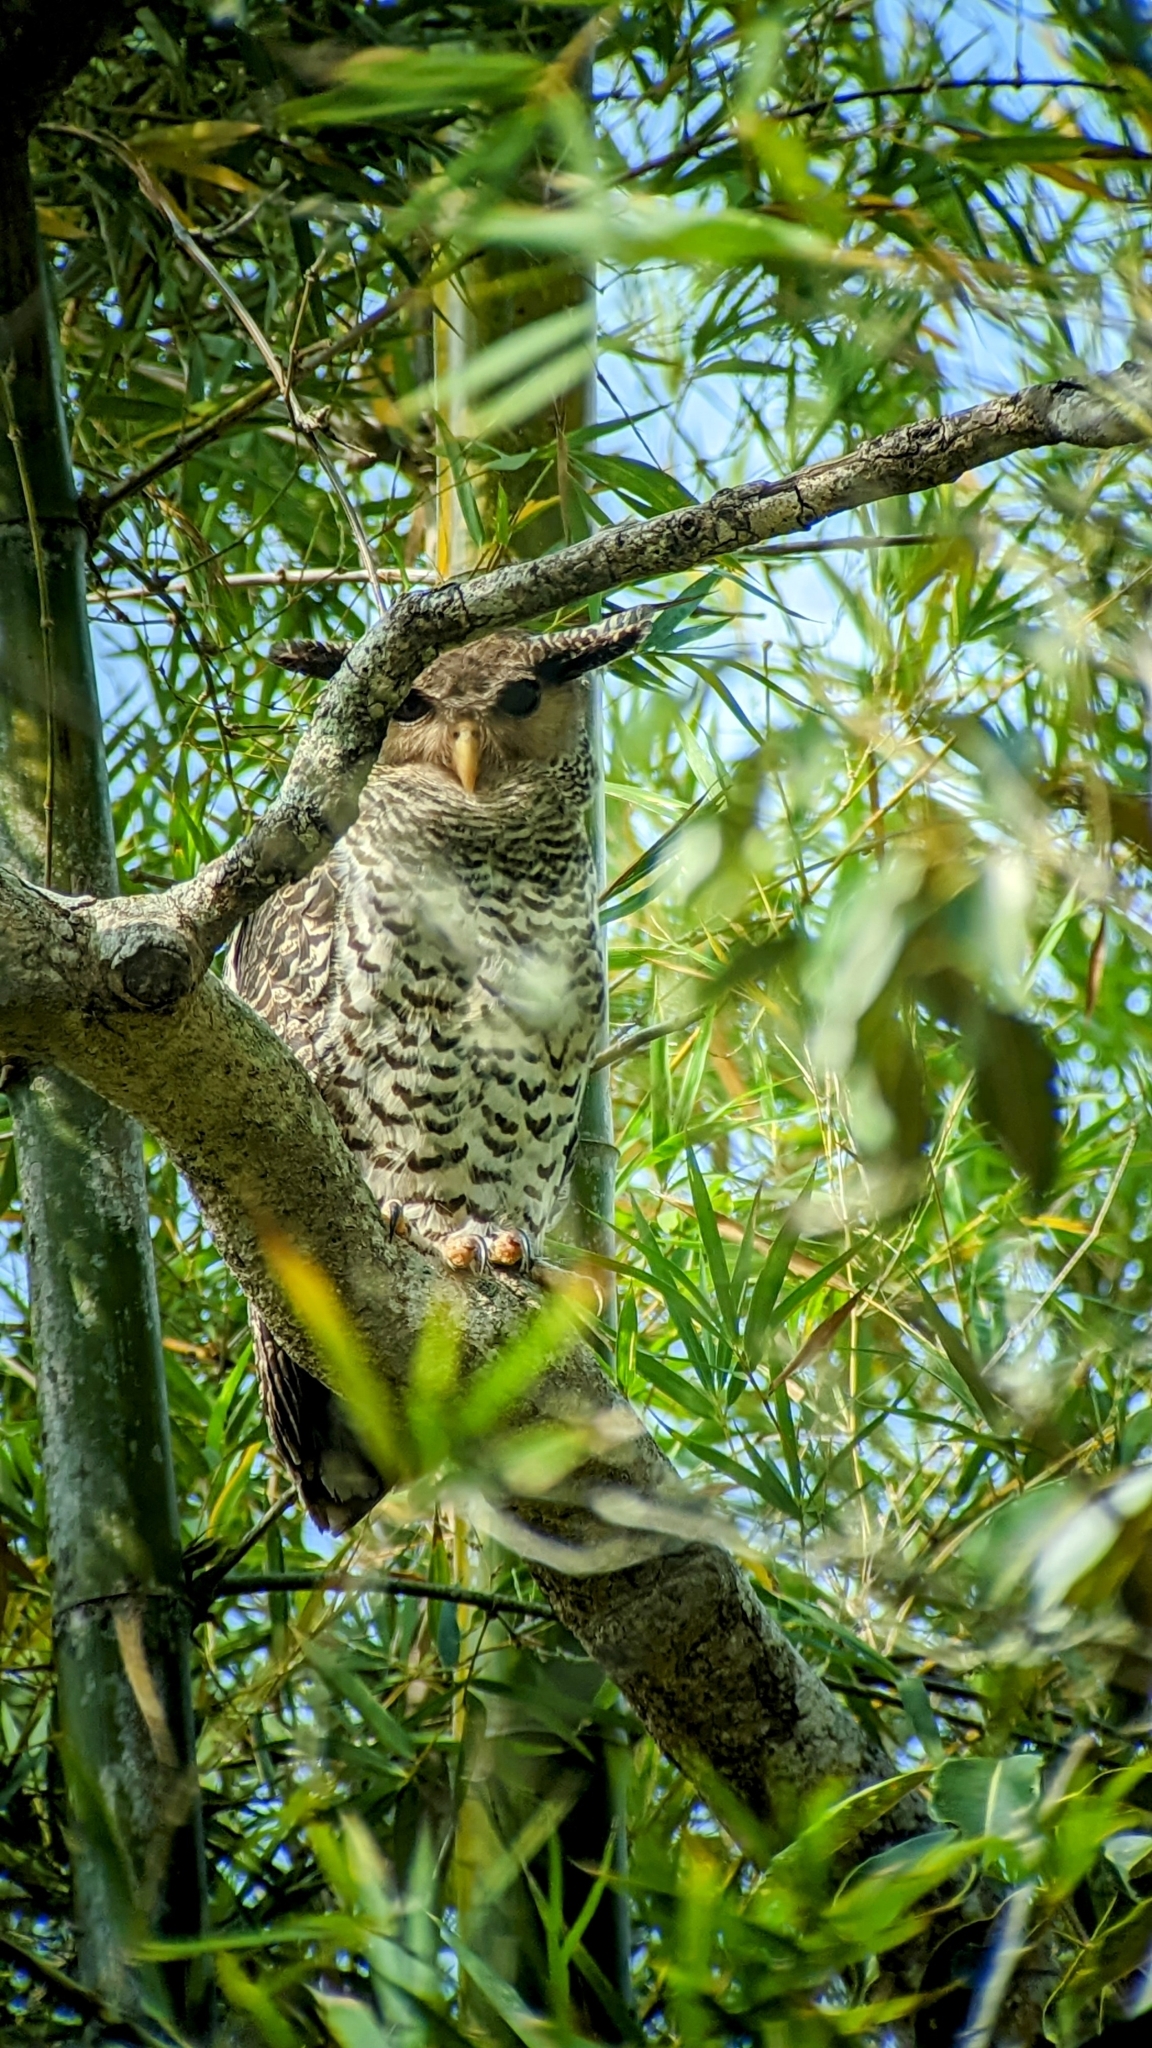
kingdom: Animalia
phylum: Chordata
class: Aves
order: Strigiformes
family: Strigidae
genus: Ketupa
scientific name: Ketupa nipalensis
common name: Spot-bellied eagle-owl
